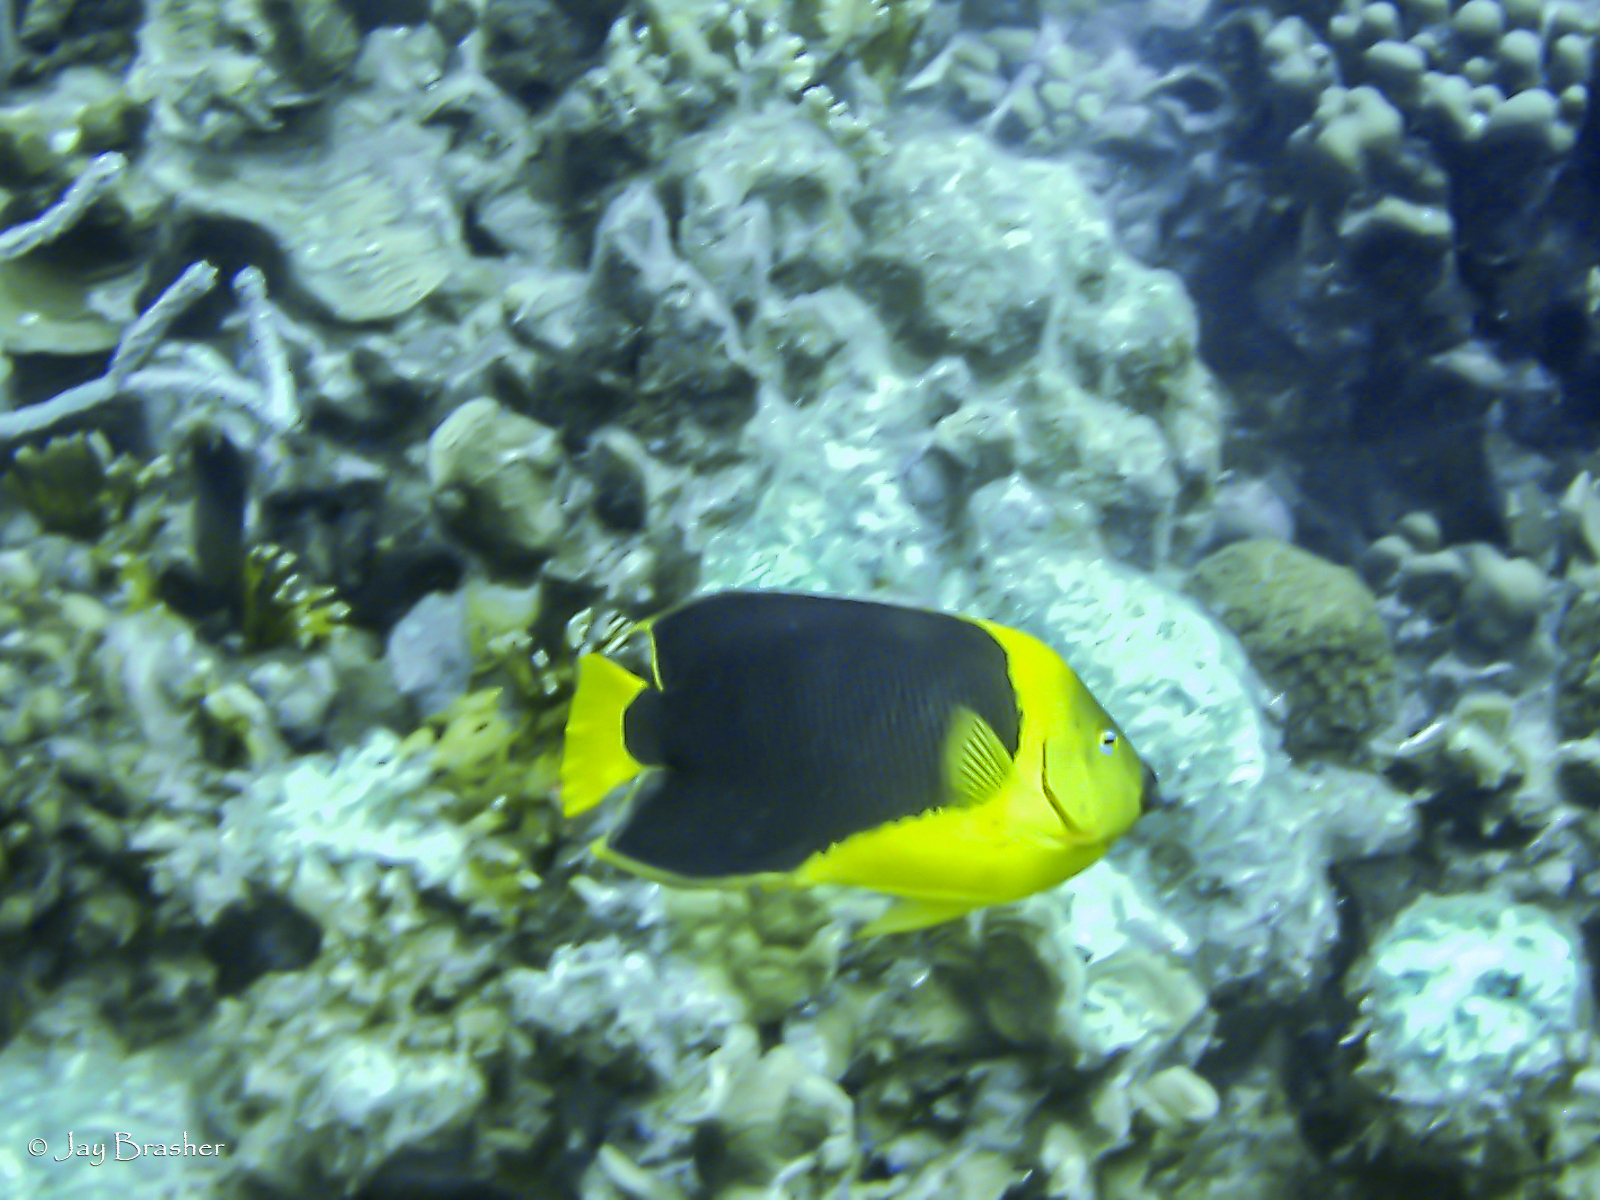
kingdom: Animalia
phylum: Chordata
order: Perciformes
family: Pomacanthidae
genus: Holacanthus
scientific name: Holacanthus tricolor
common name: Rock beauty
